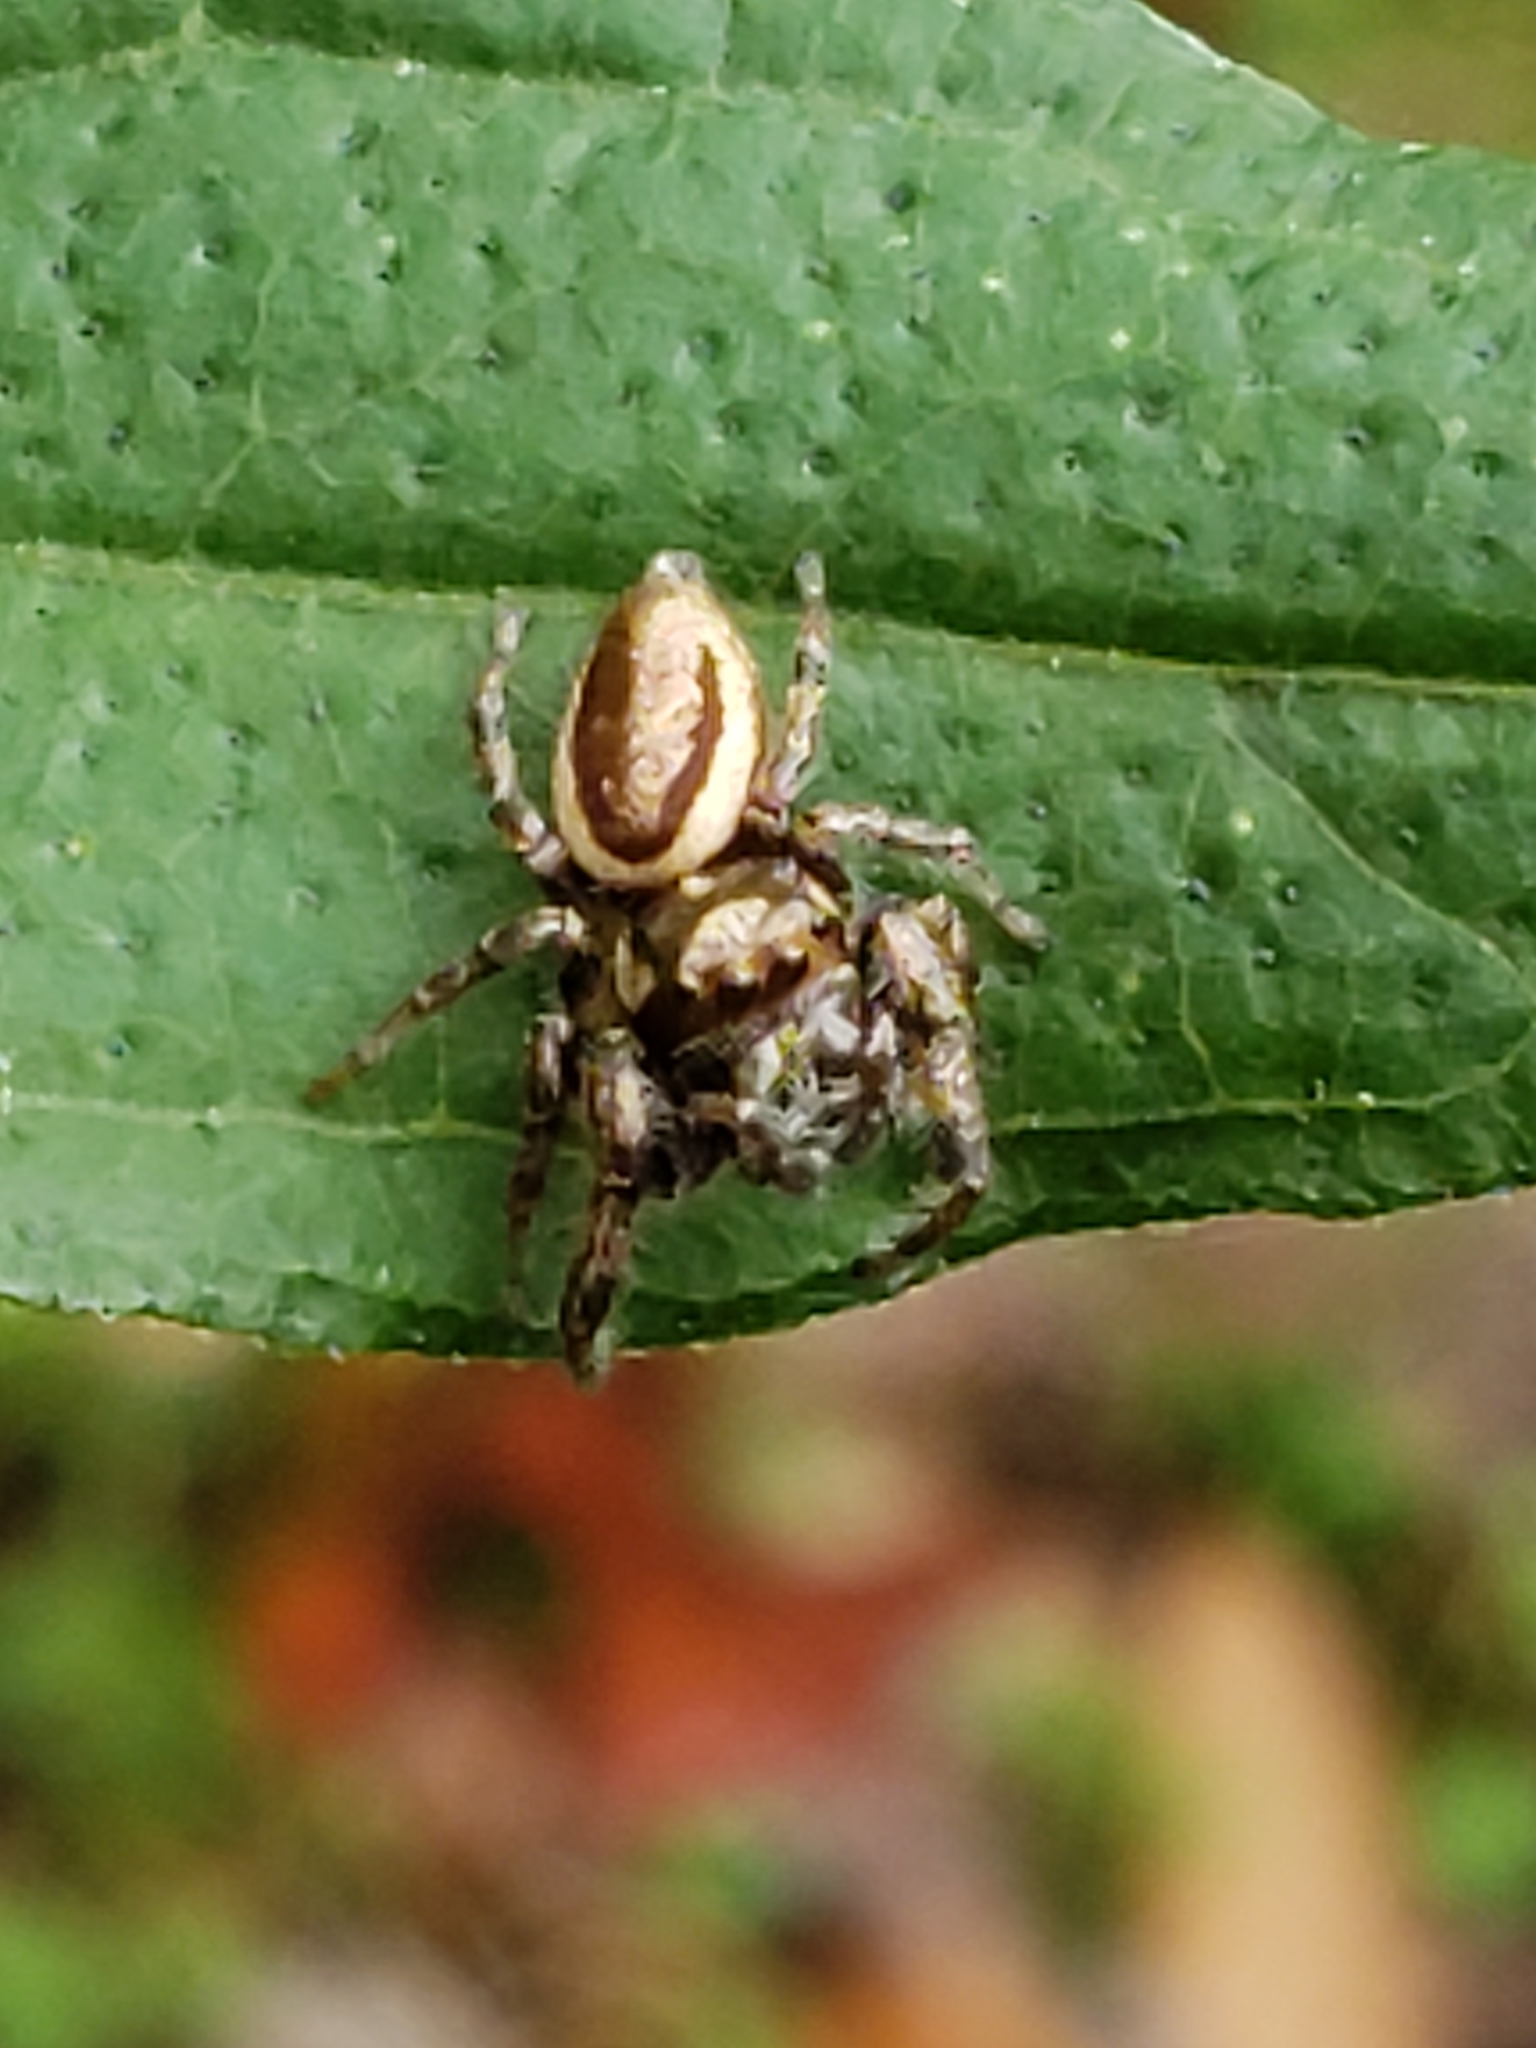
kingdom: Animalia
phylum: Arthropoda
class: Arachnida
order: Araneae
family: Salticidae
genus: Eris
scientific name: Eris militaris
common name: Bronze jumper
